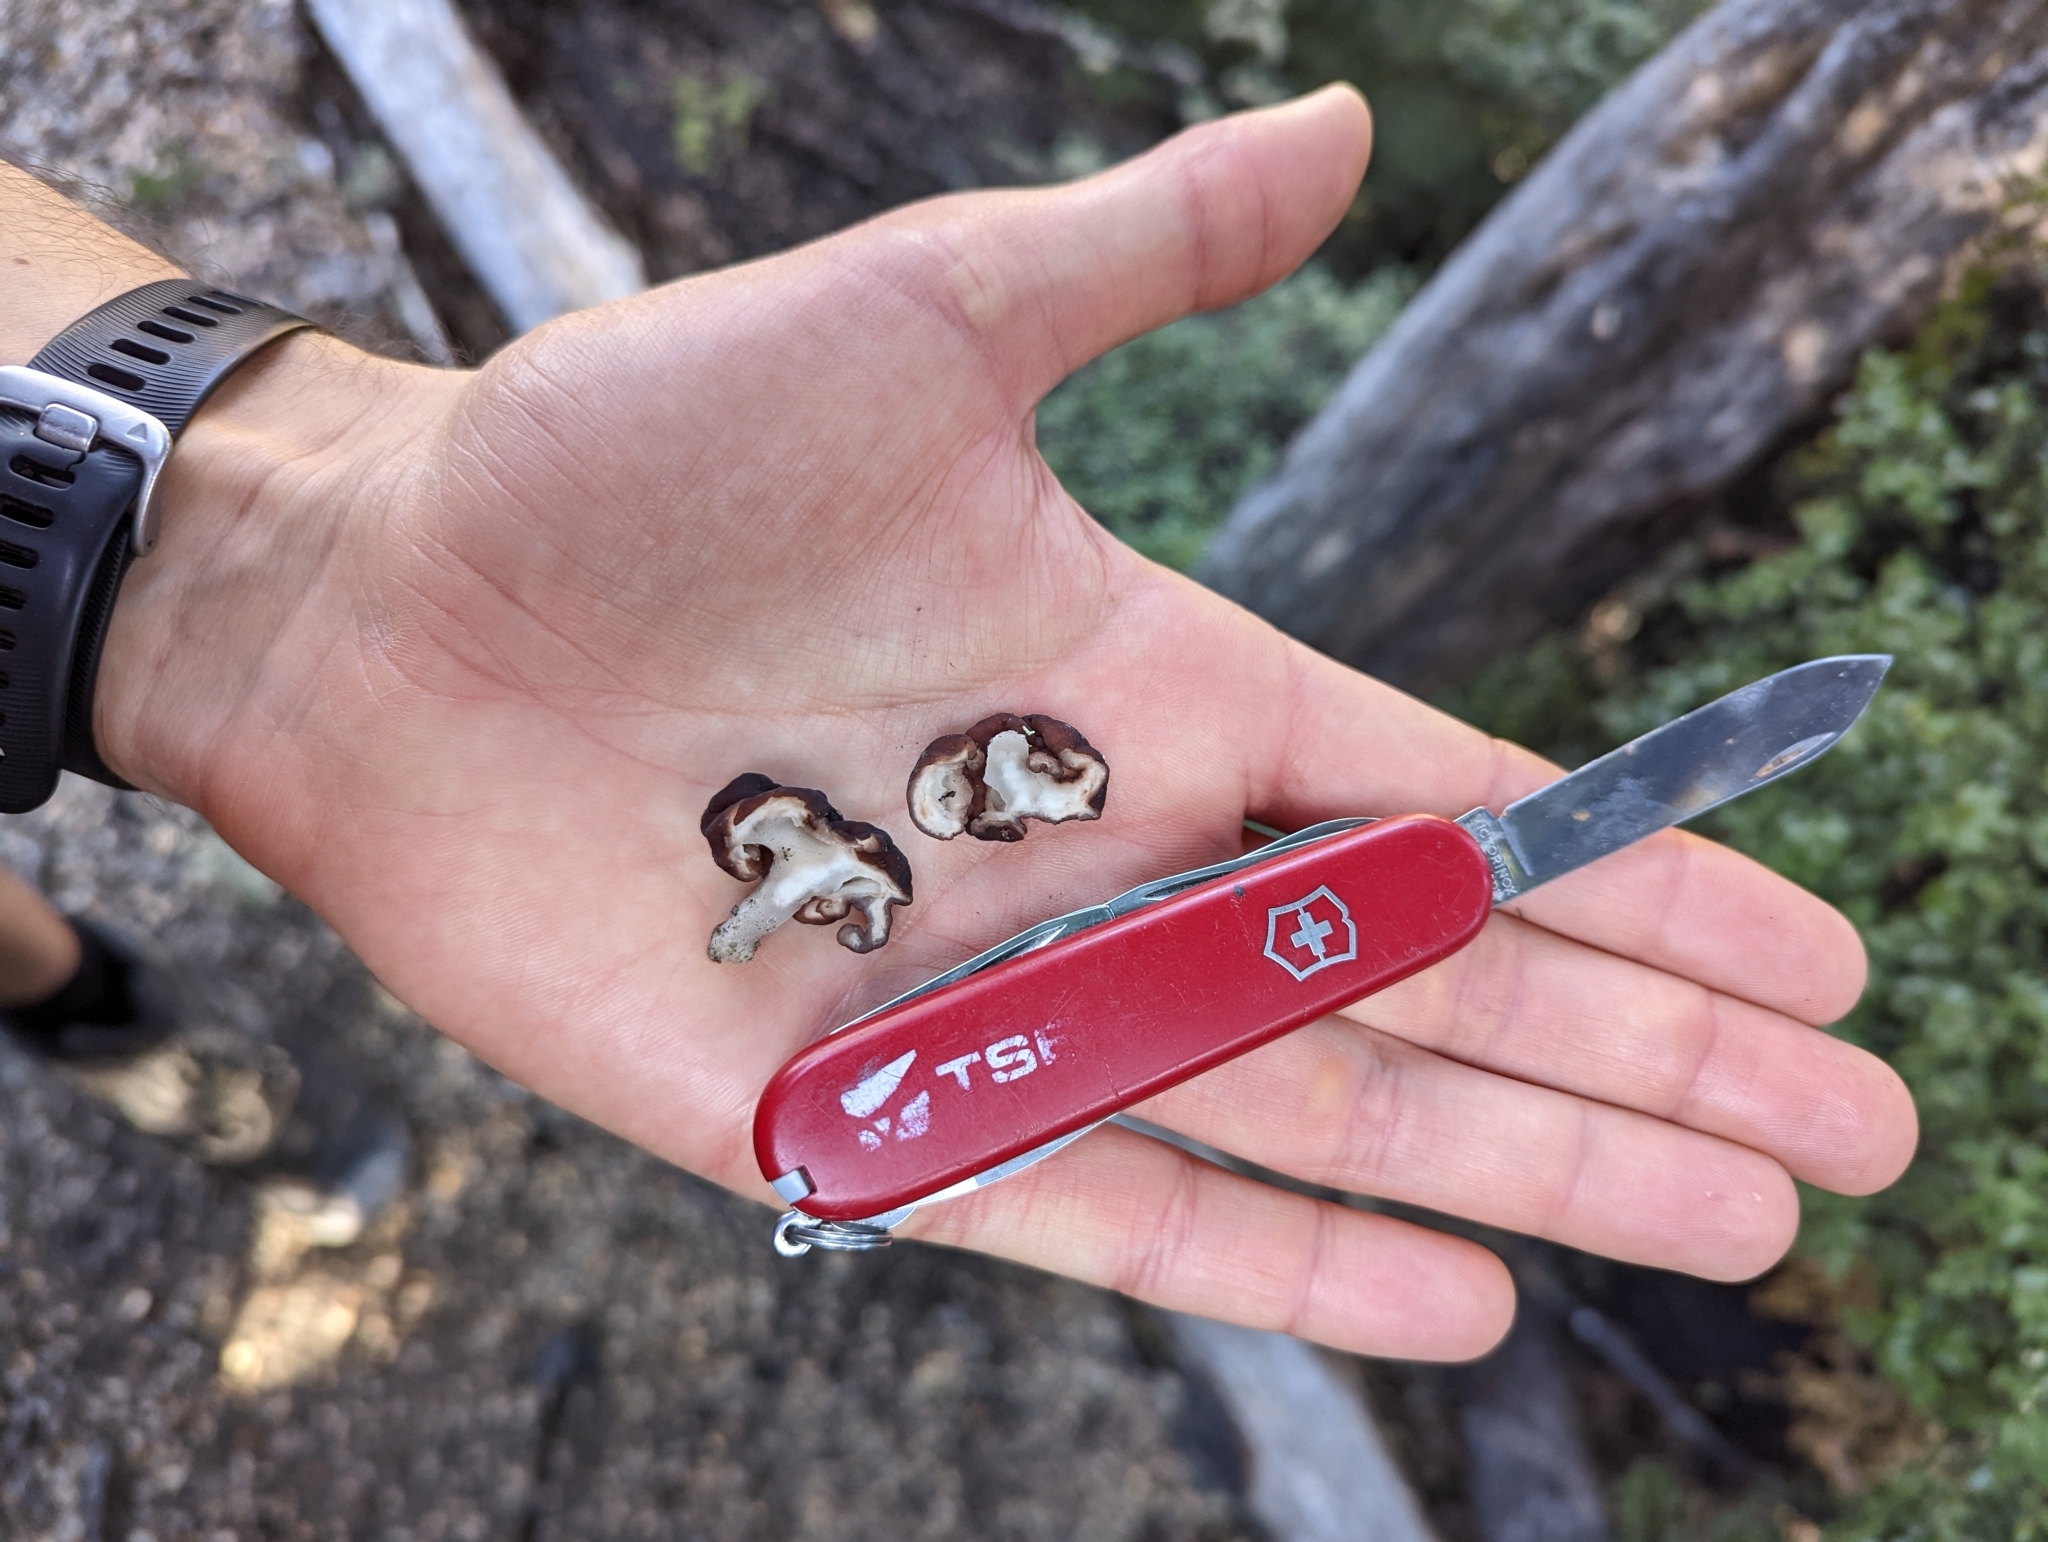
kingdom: Fungi
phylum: Ascomycota
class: Pezizomycetes
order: Pezizales
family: Discinaceae
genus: Gyromitra
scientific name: Gyromitra tasmanica
